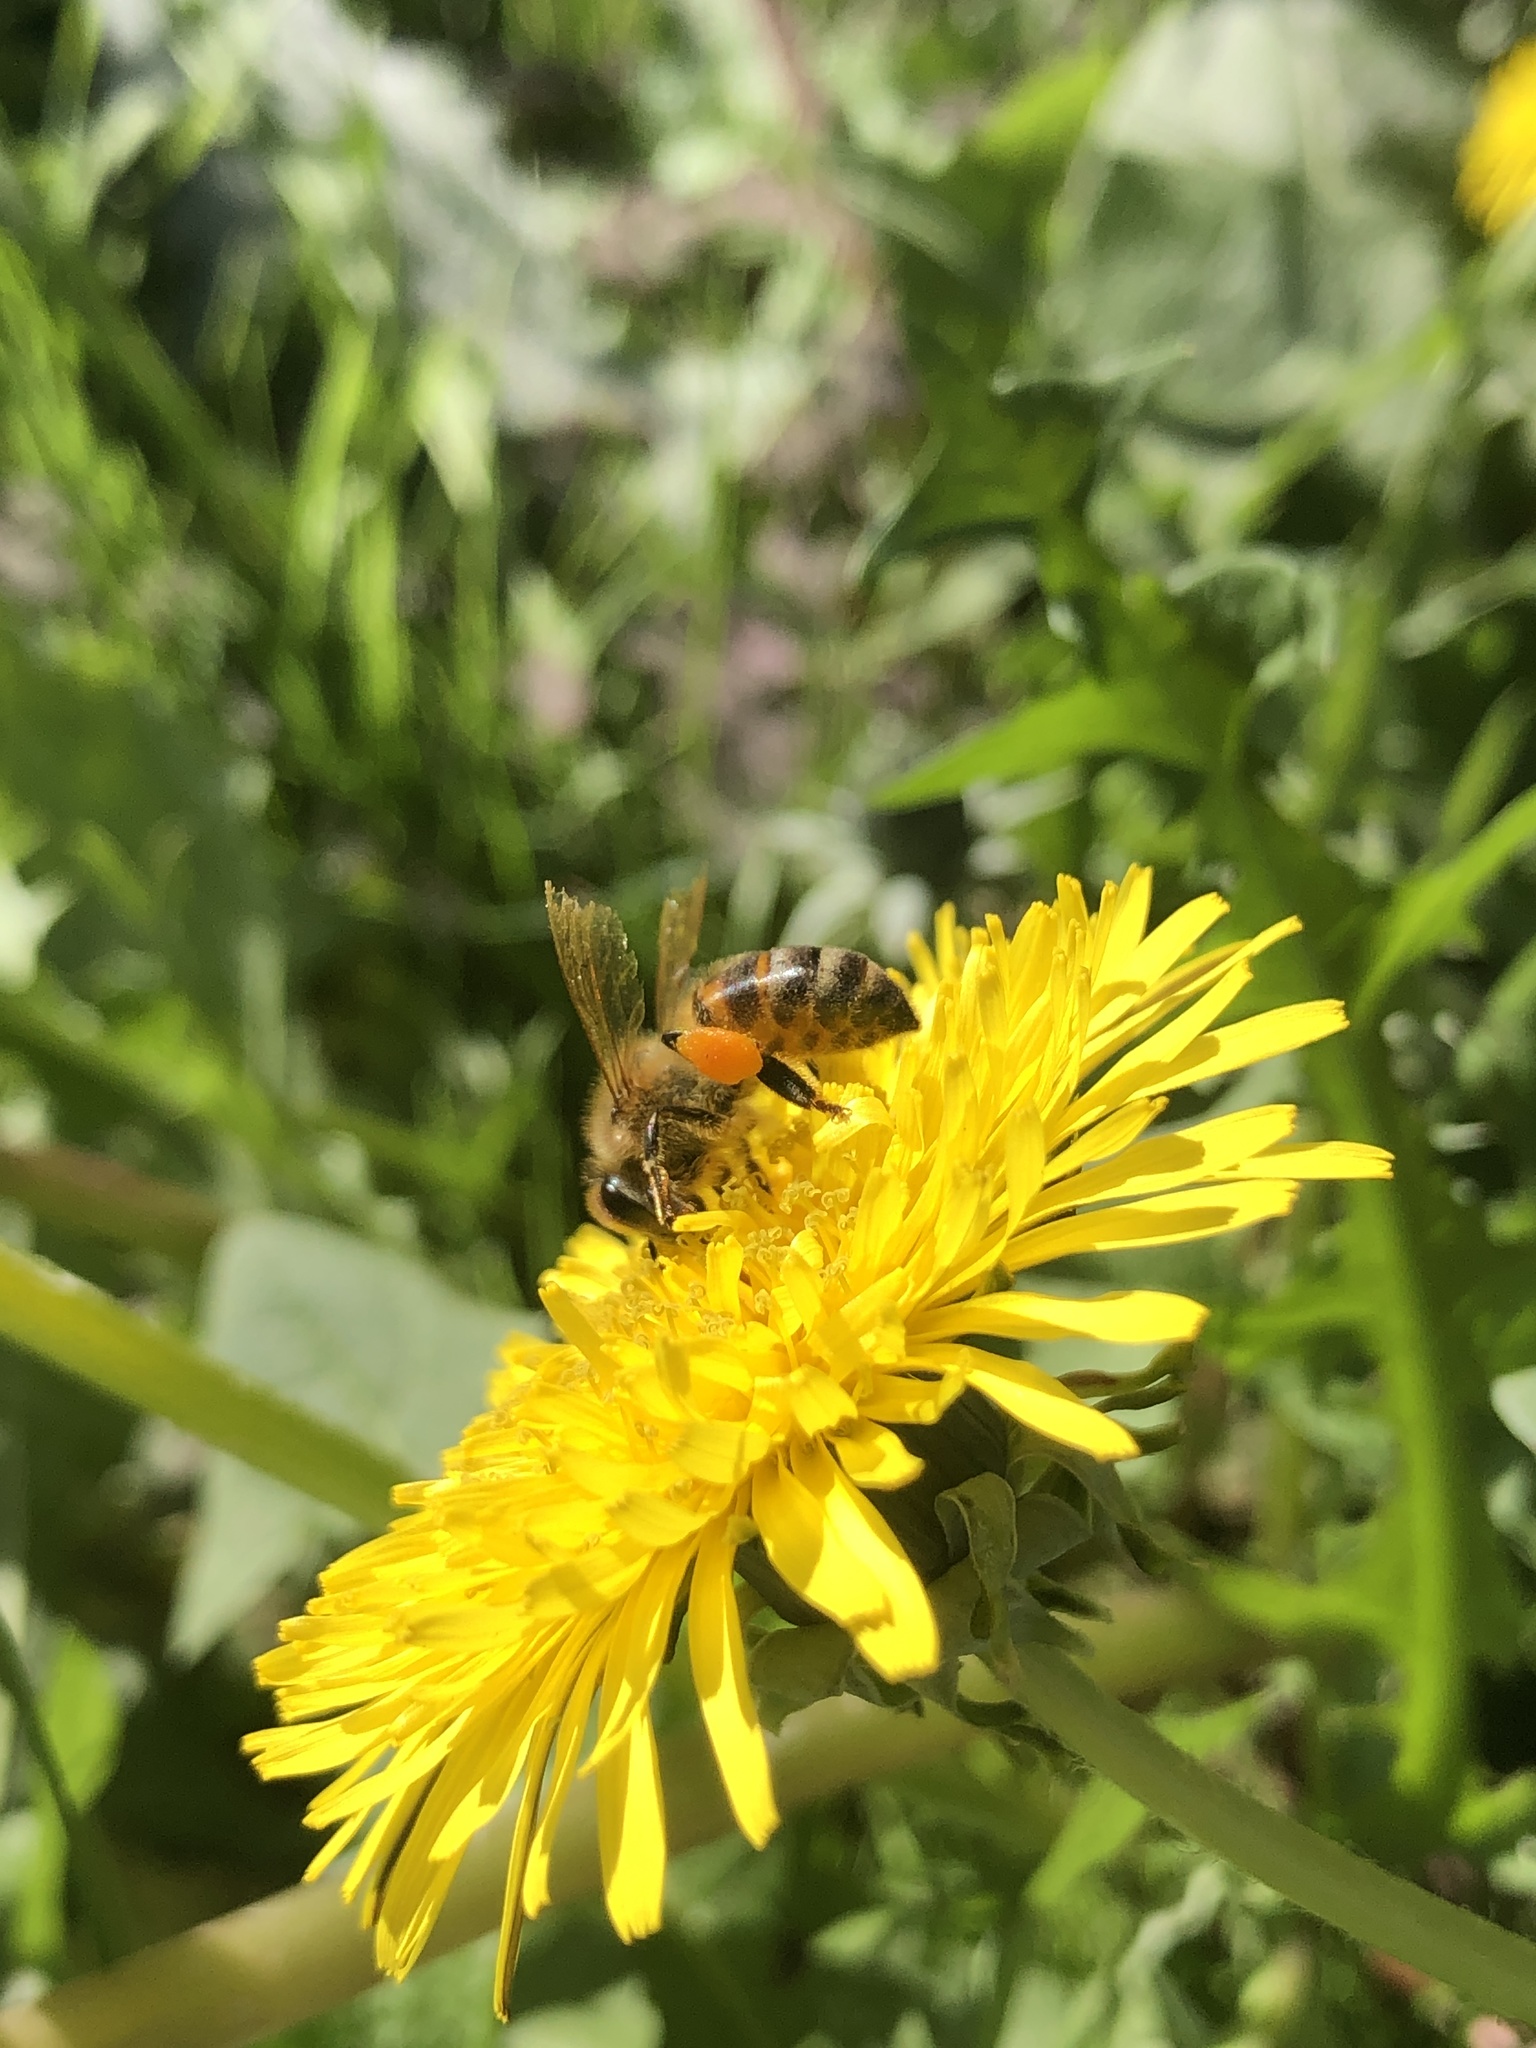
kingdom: Animalia
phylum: Arthropoda
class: Insecta
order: Hymenoptera
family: Apidae
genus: Apis
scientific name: Apis mellifera
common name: Honey bee
